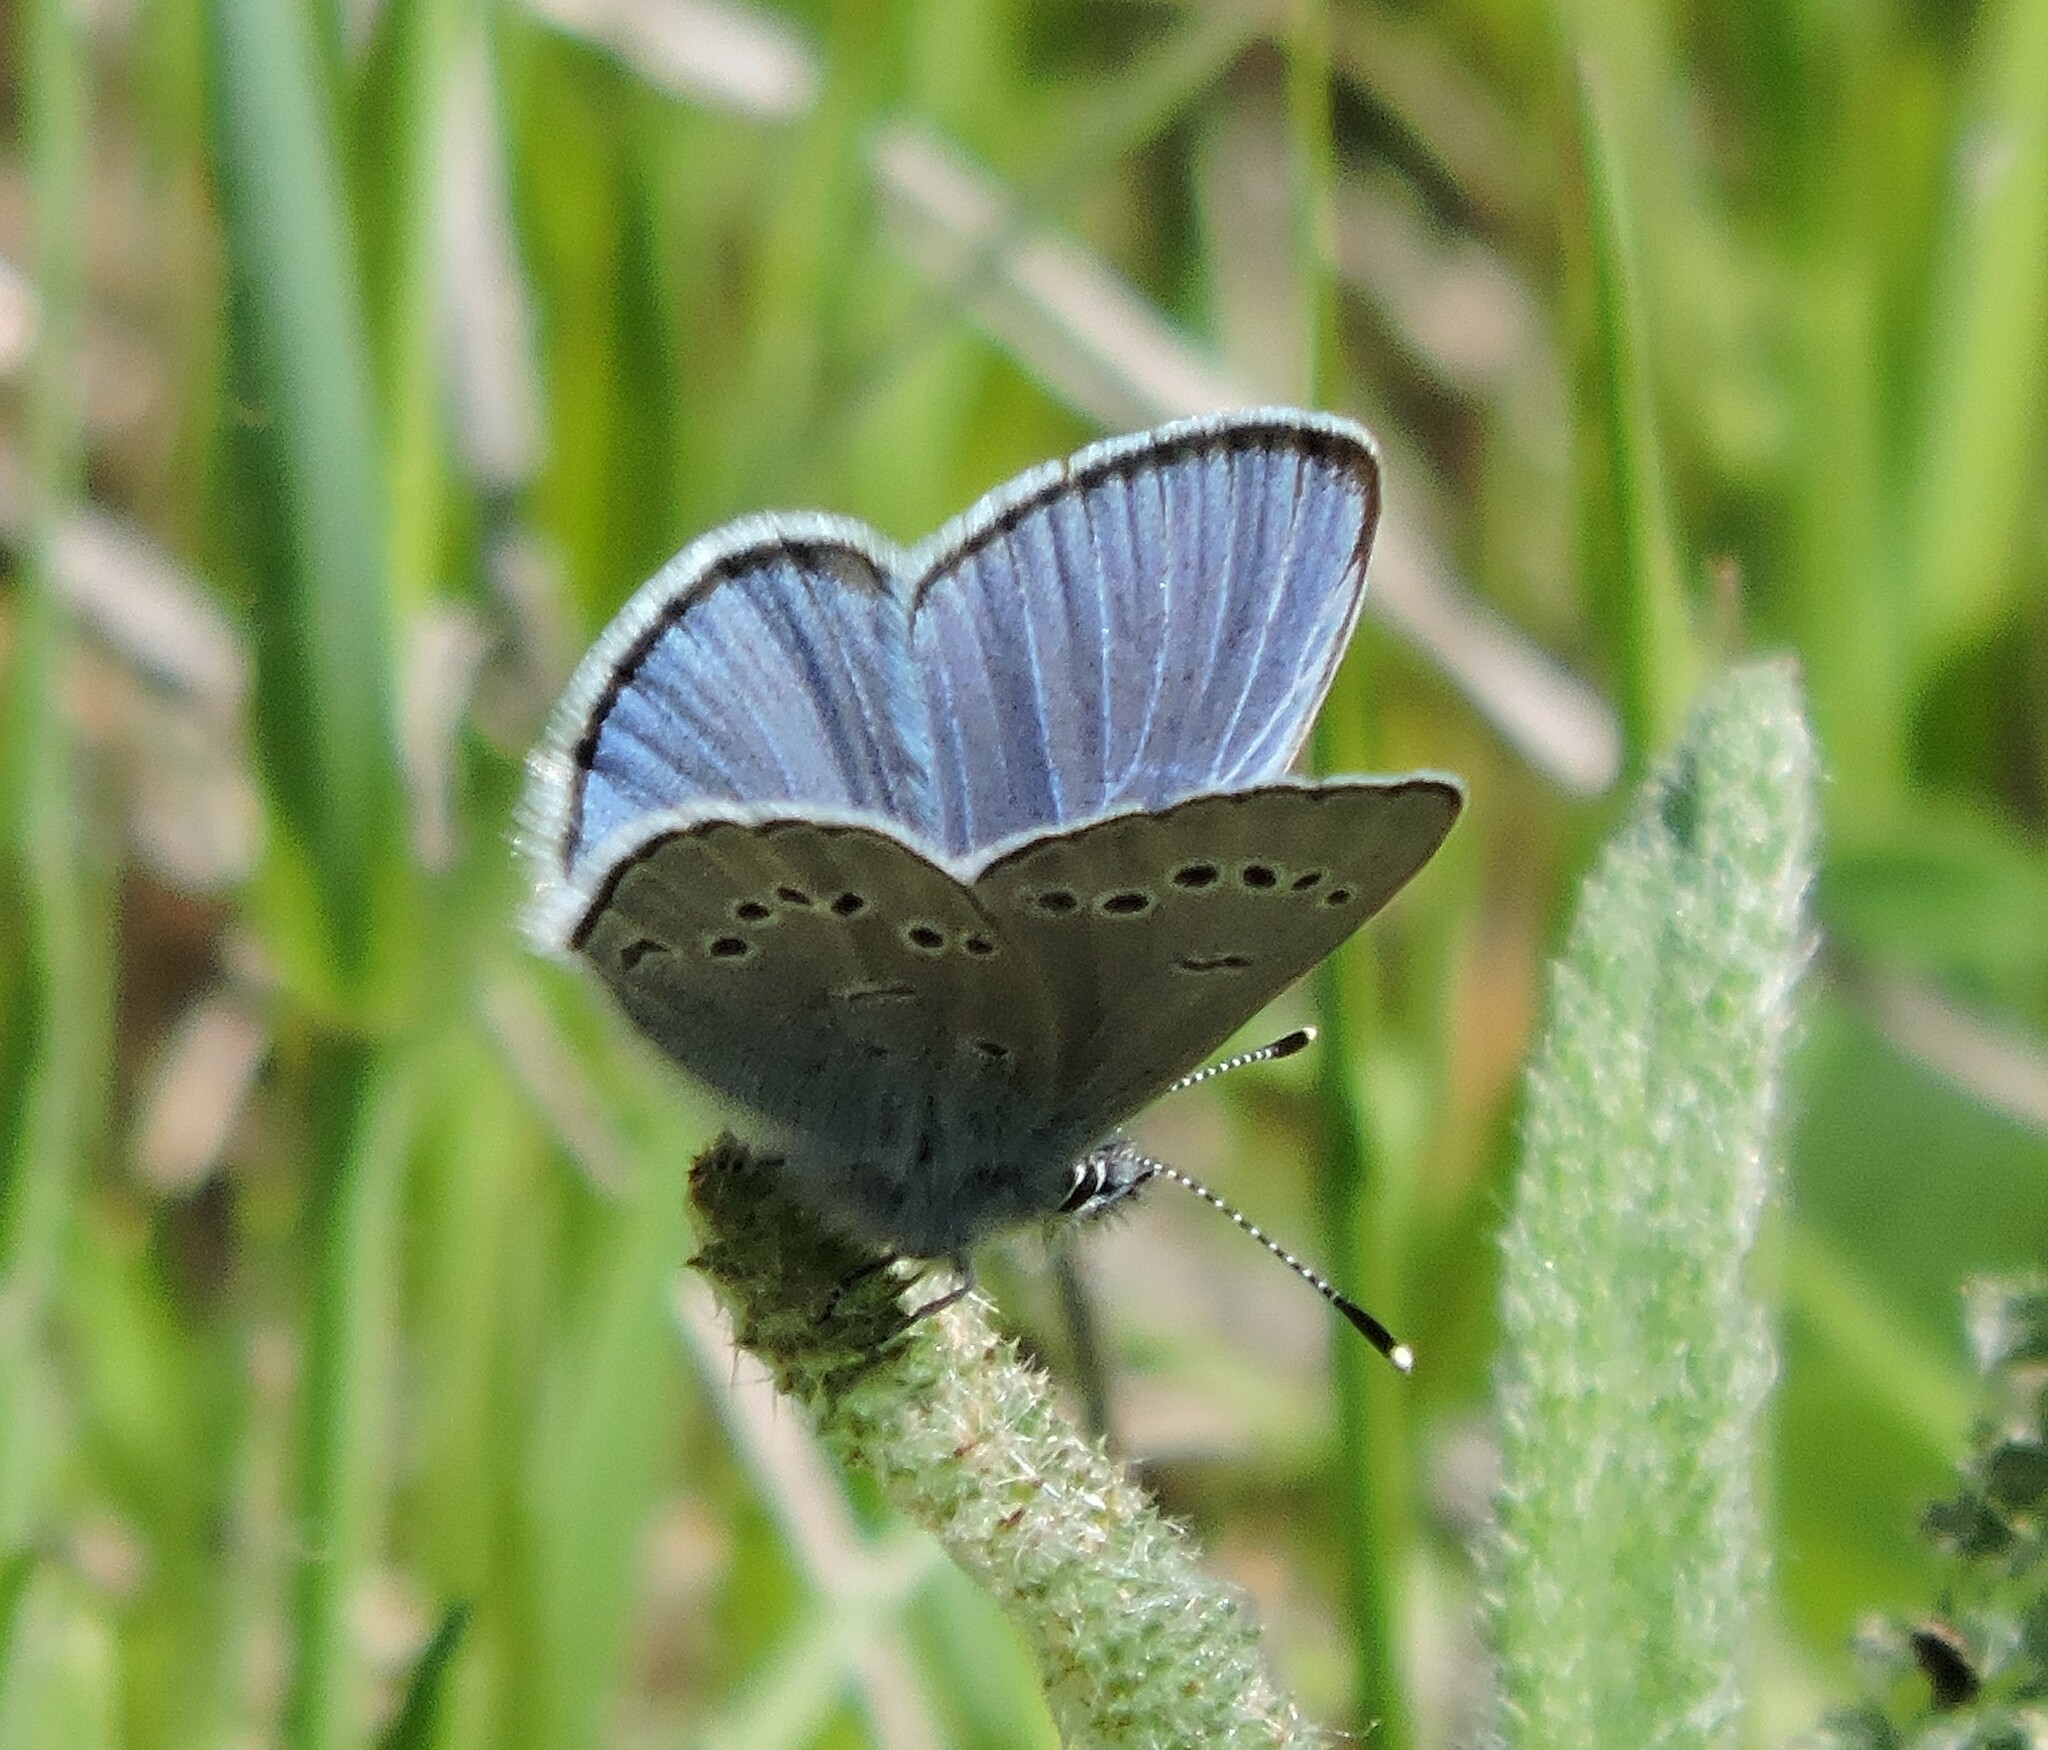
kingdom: Animalia
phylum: Arthropoda
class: Insecta
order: Lepidoptera
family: Lycaenidae
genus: Glaucopsyche
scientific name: Glaucopsyche lygdamus
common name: Silvery blue
